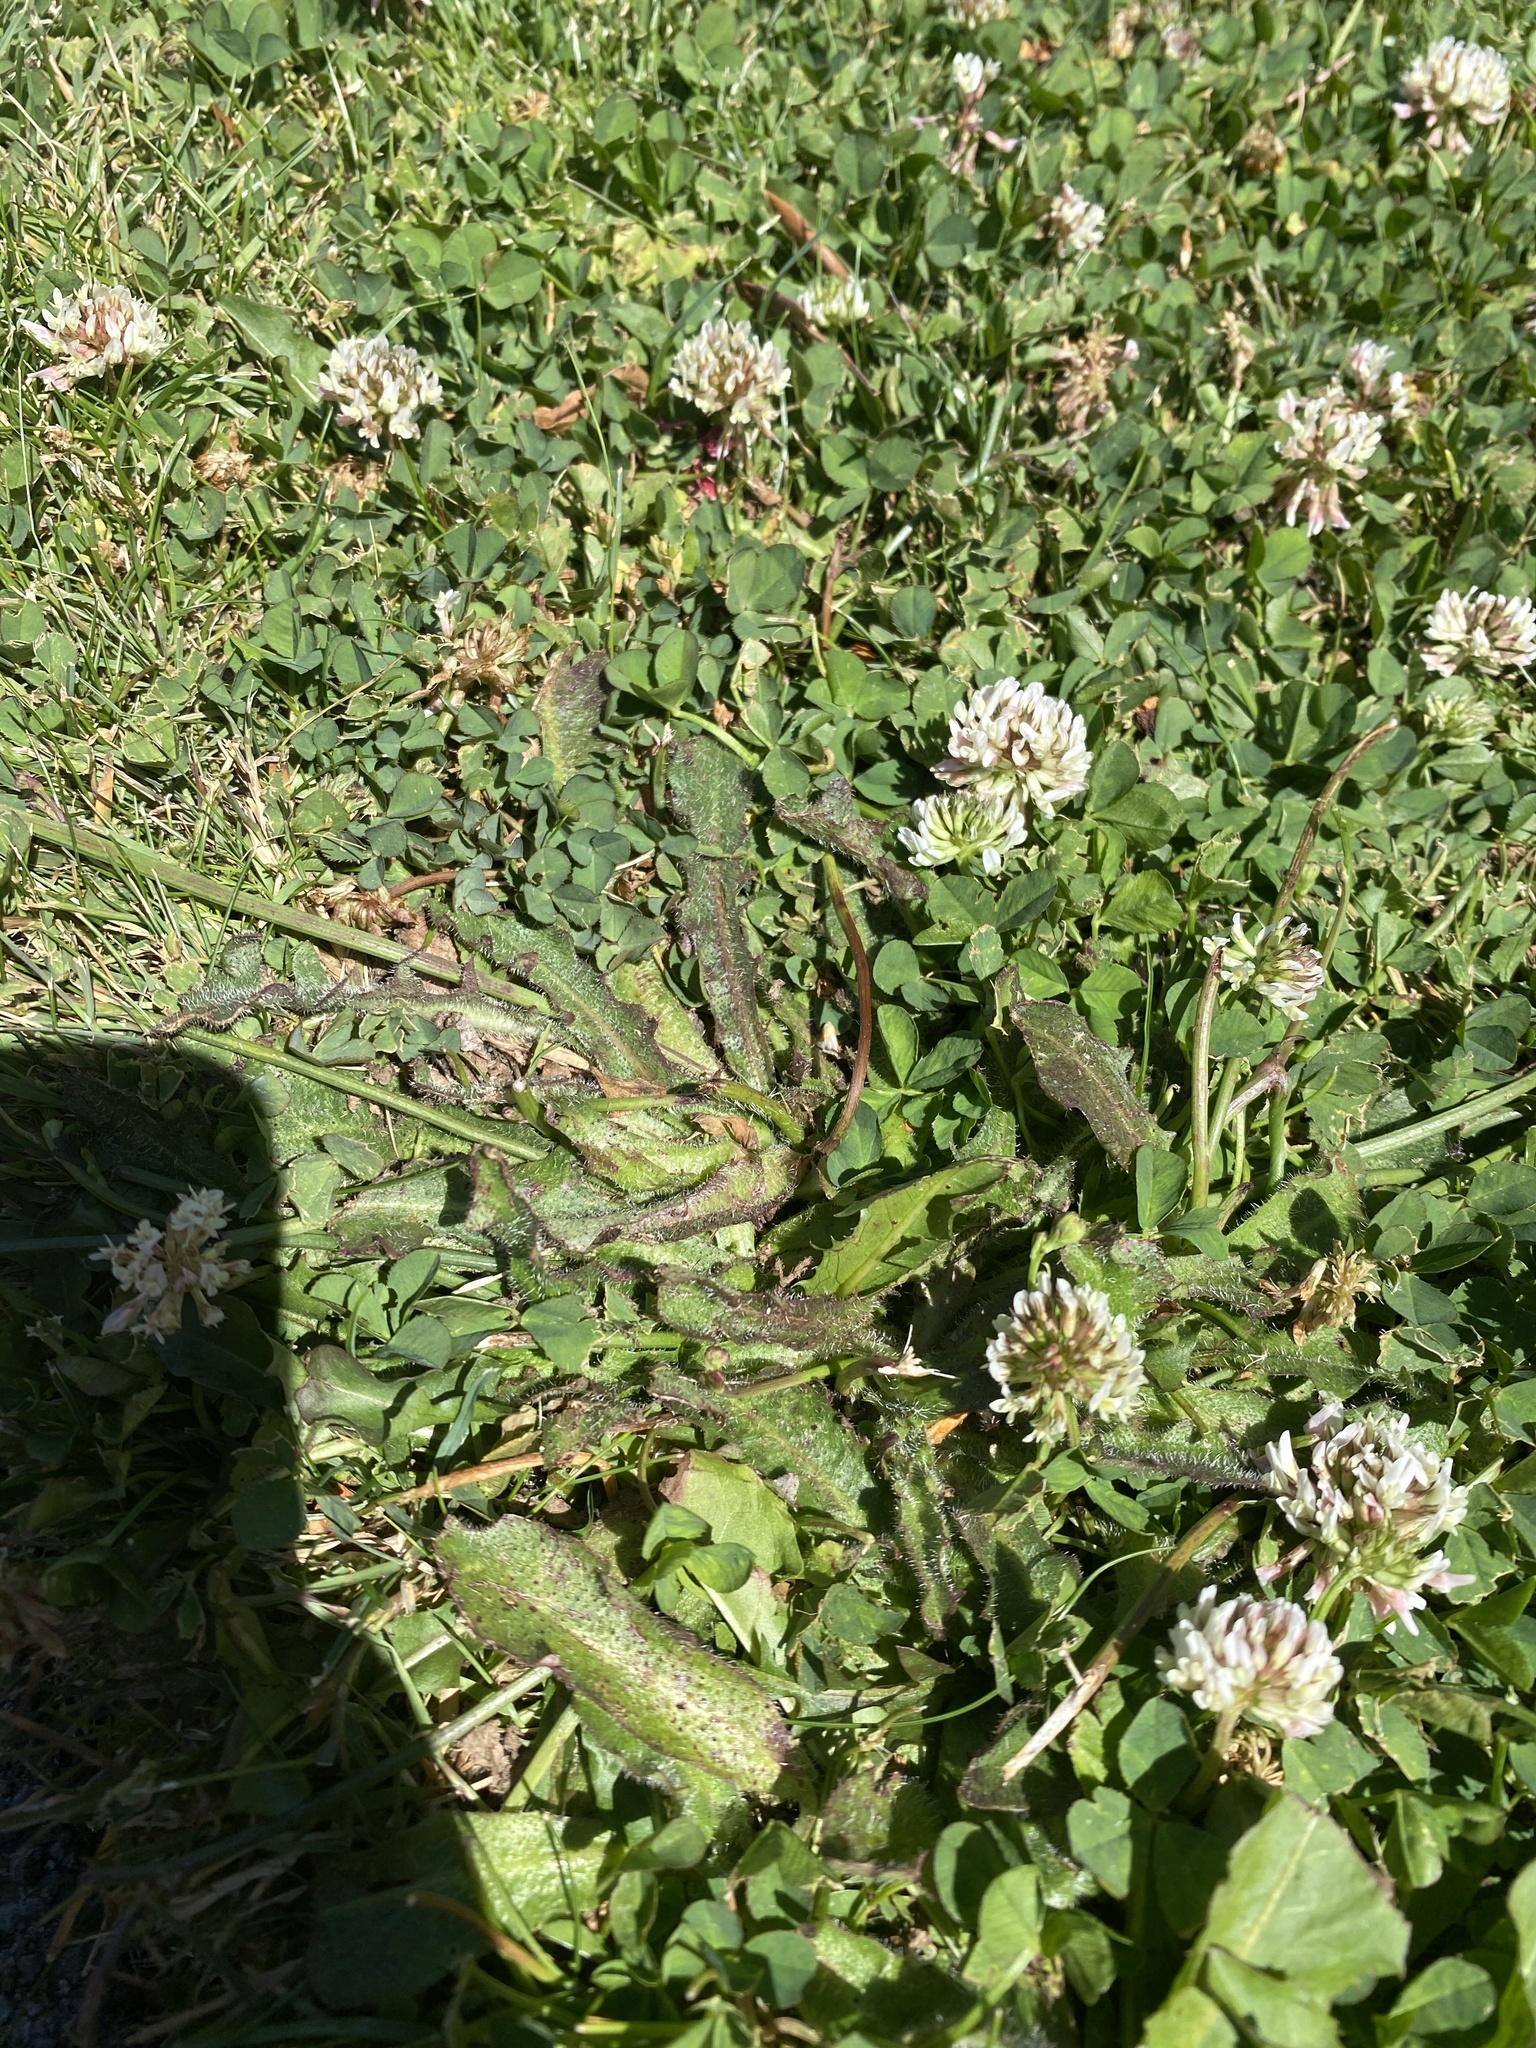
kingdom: Plantae
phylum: Tracheophyta
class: Magnoliopsida
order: Fabales
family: Fabaceae
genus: Trifolium
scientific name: Trifolium repens
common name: White clover
